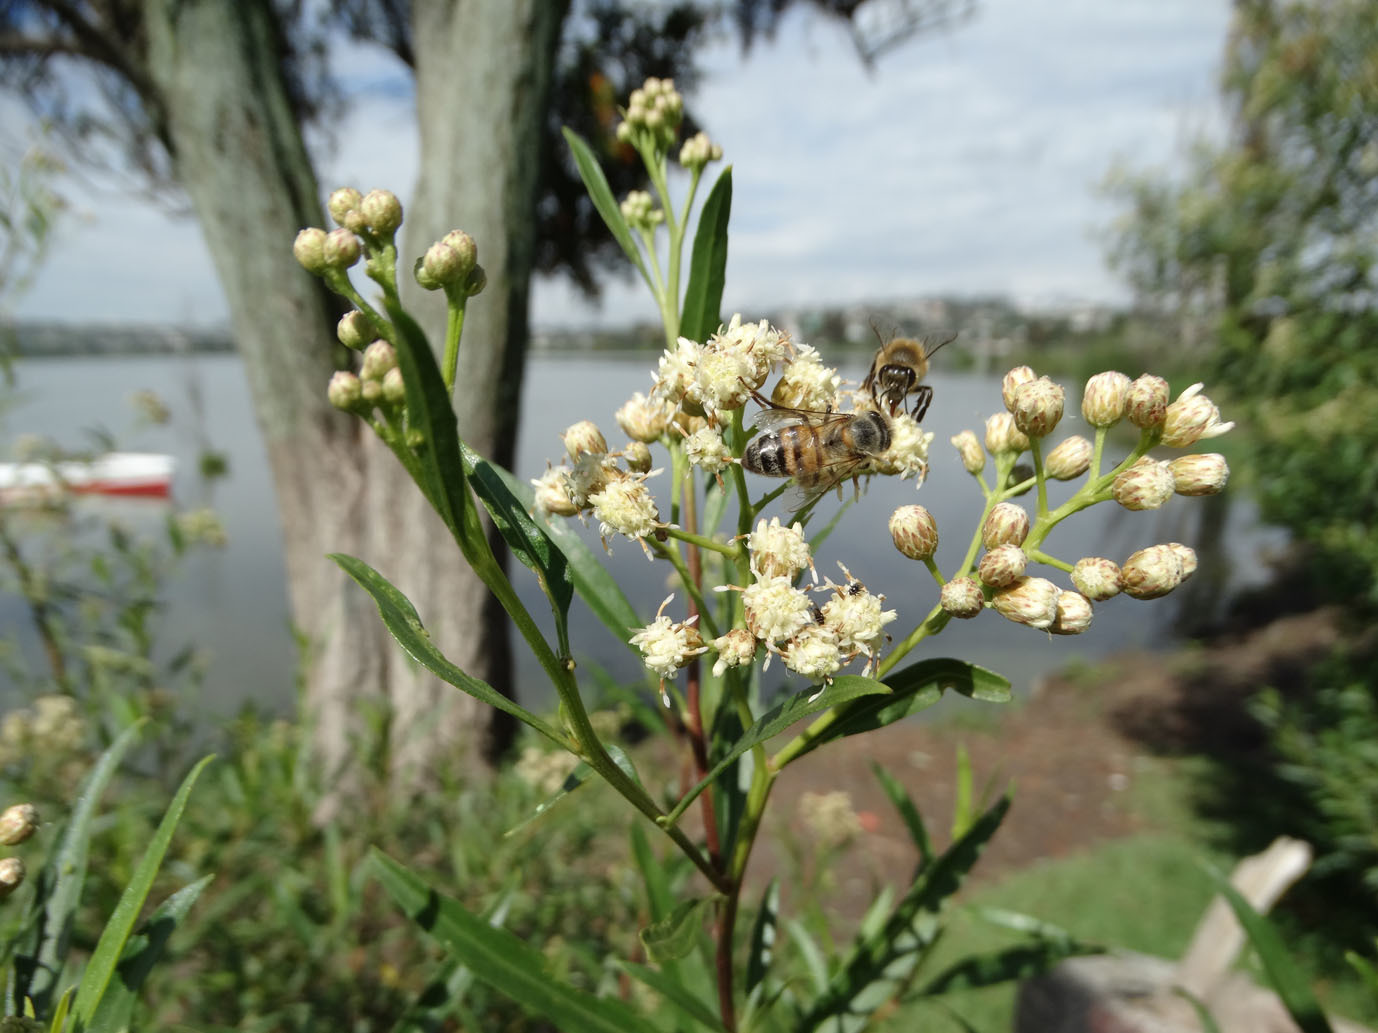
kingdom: Plantae
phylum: Tracheophyta
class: Magnoliopsida
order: Asterales
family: Asteraceae
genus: Baccharis
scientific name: Baccharis salicifolia
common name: Sticky baccharis
